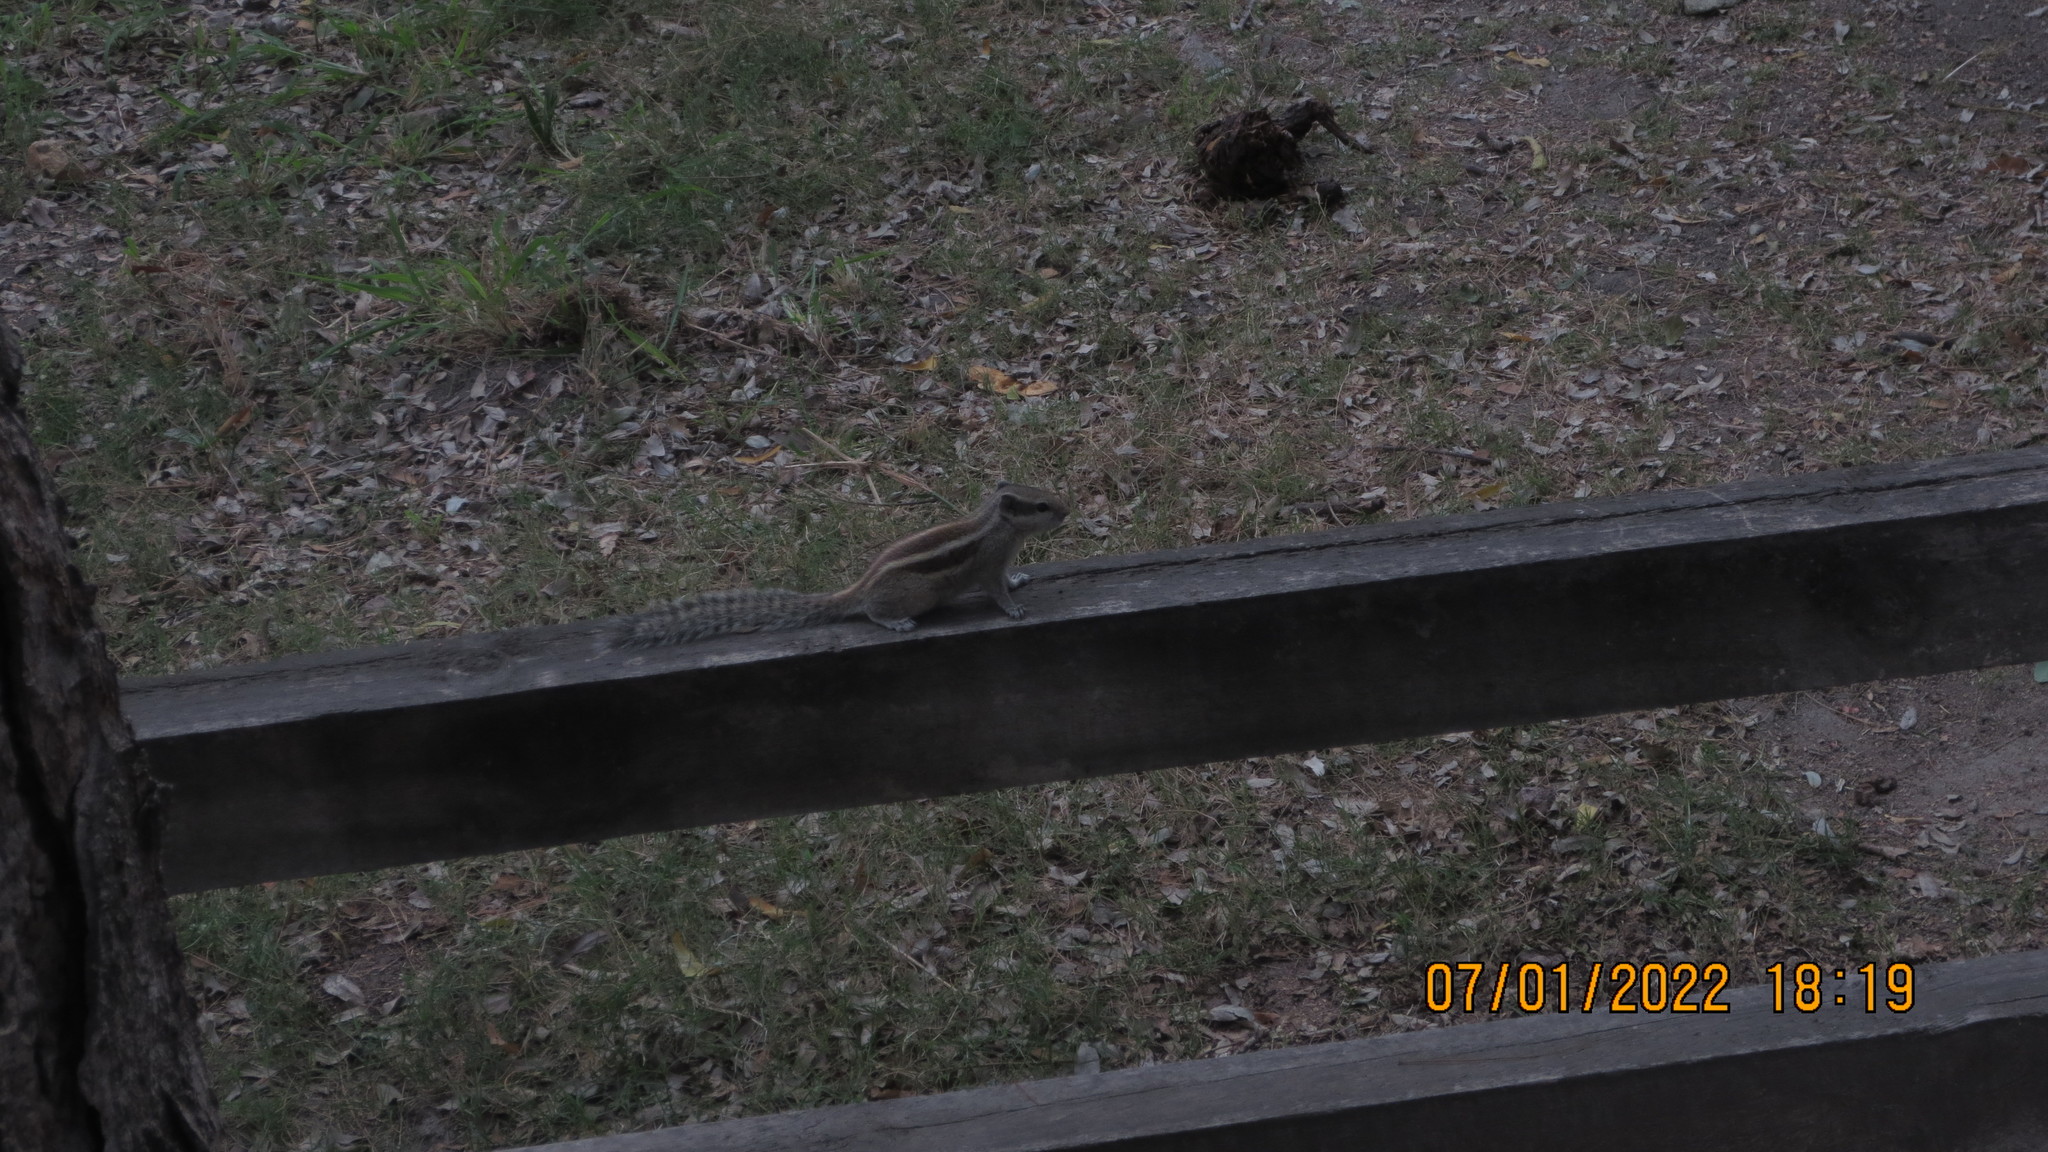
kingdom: Animalia
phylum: Chordata
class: Mammalia
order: Rodentia
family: Sciuridae
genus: Funambulus
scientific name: Funambulus pennantii
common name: Northern palm squirrel
